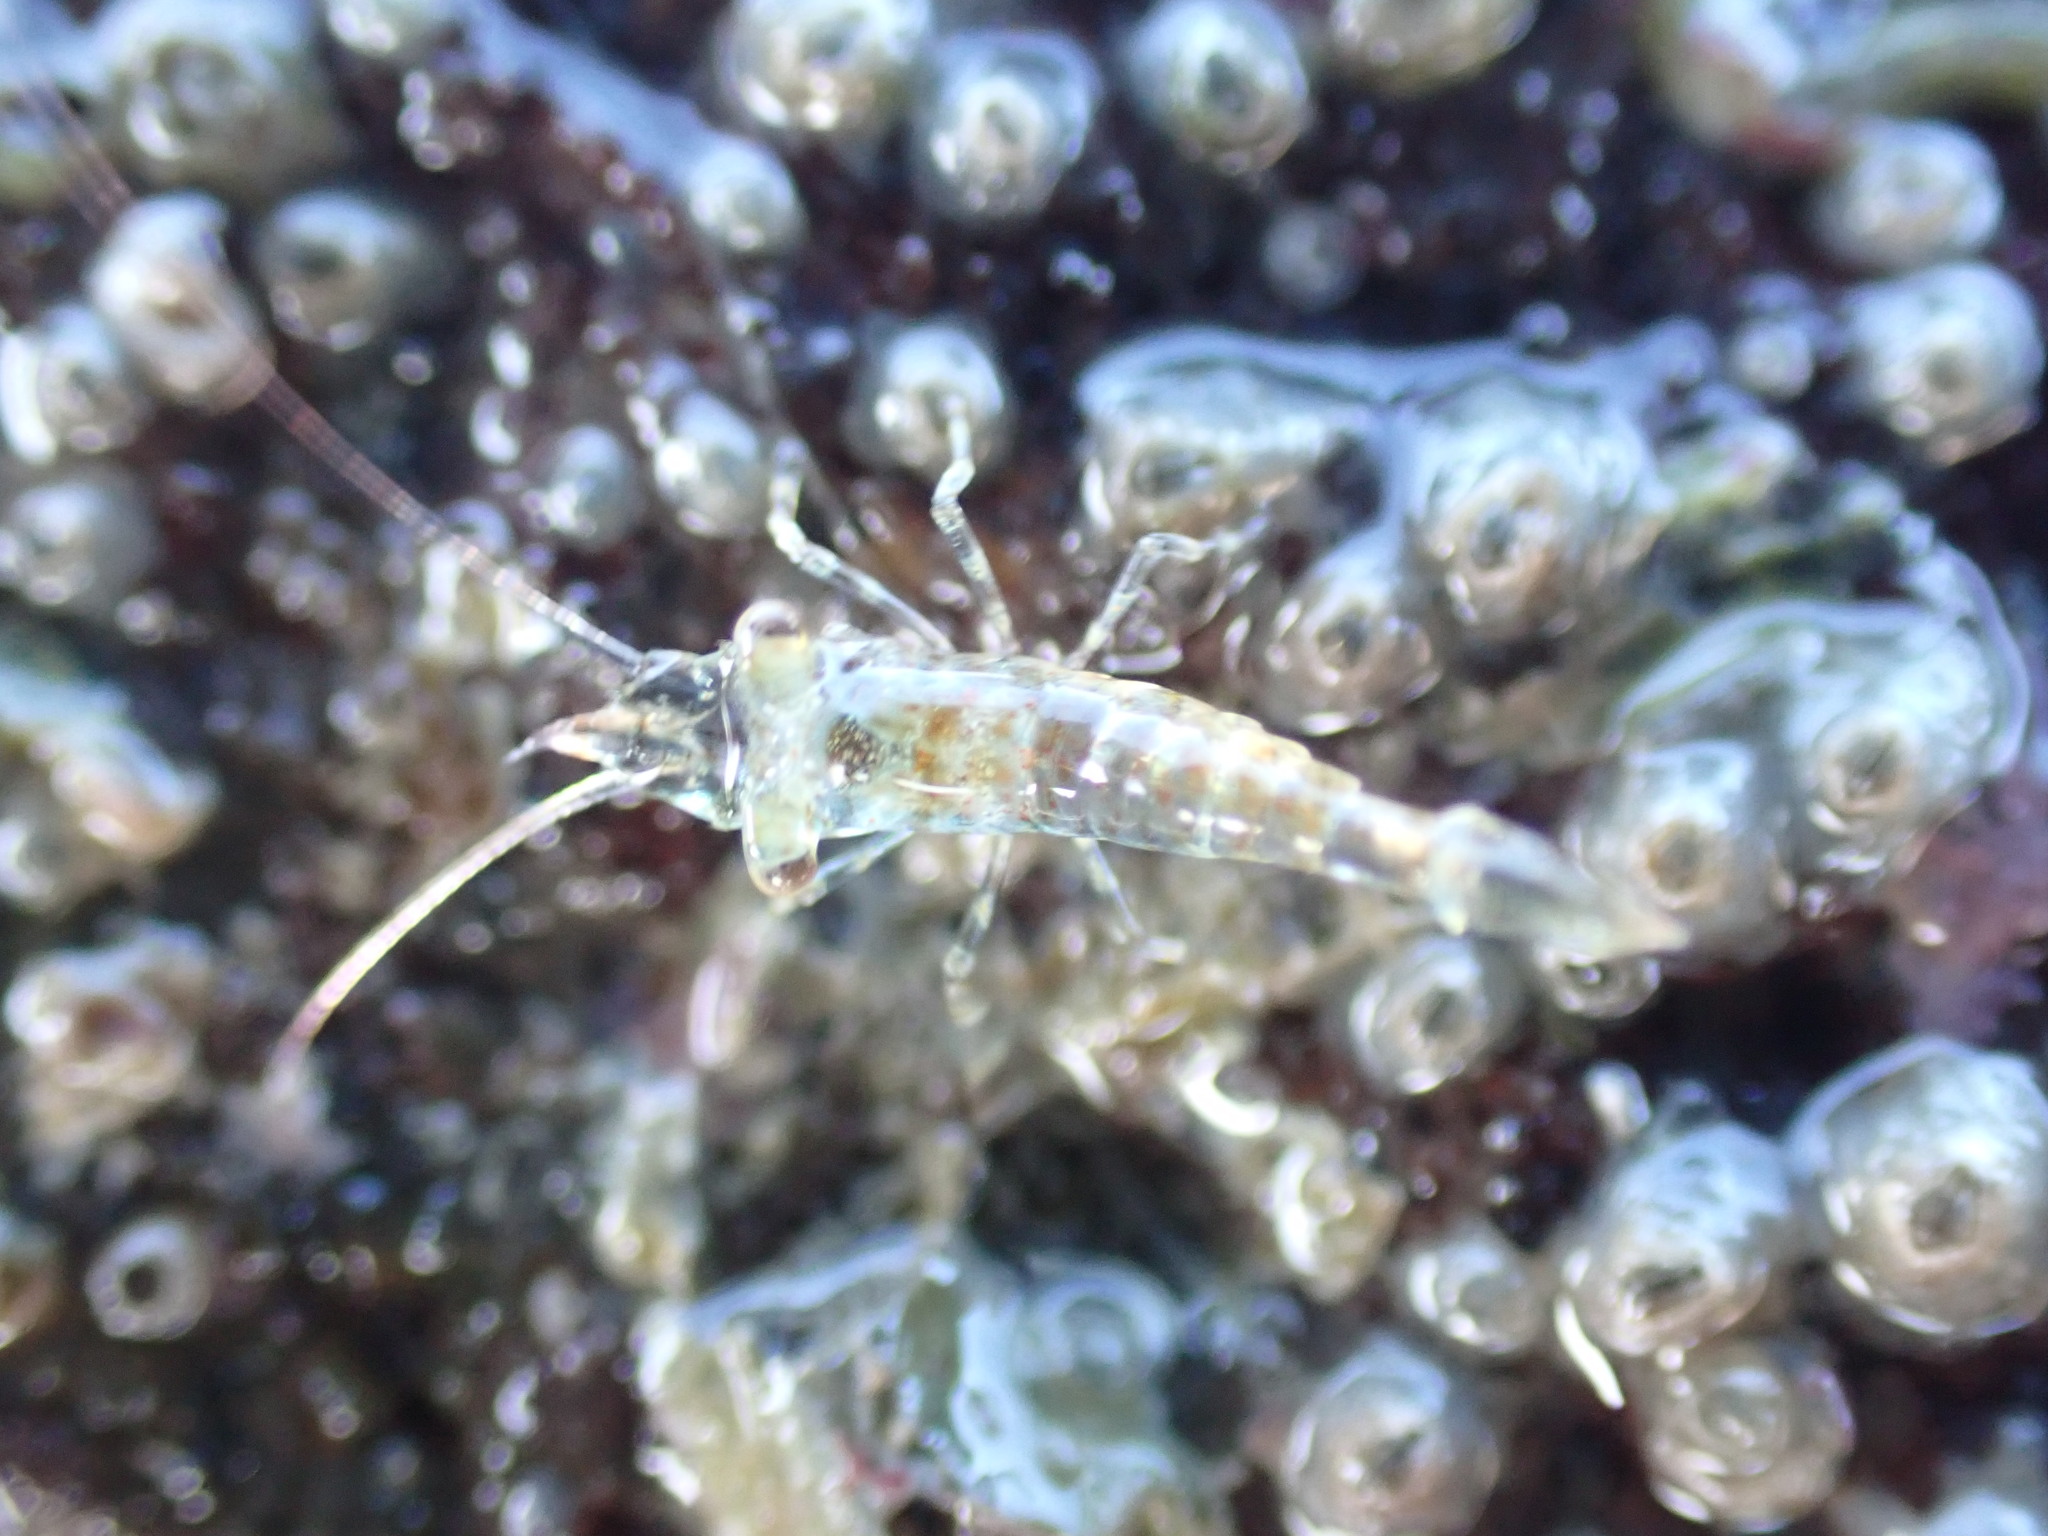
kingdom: Animalia
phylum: Arthropoda
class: Malacostraca
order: Decapoda
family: Hippolytidae
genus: Alope
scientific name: Alope spinifrons
